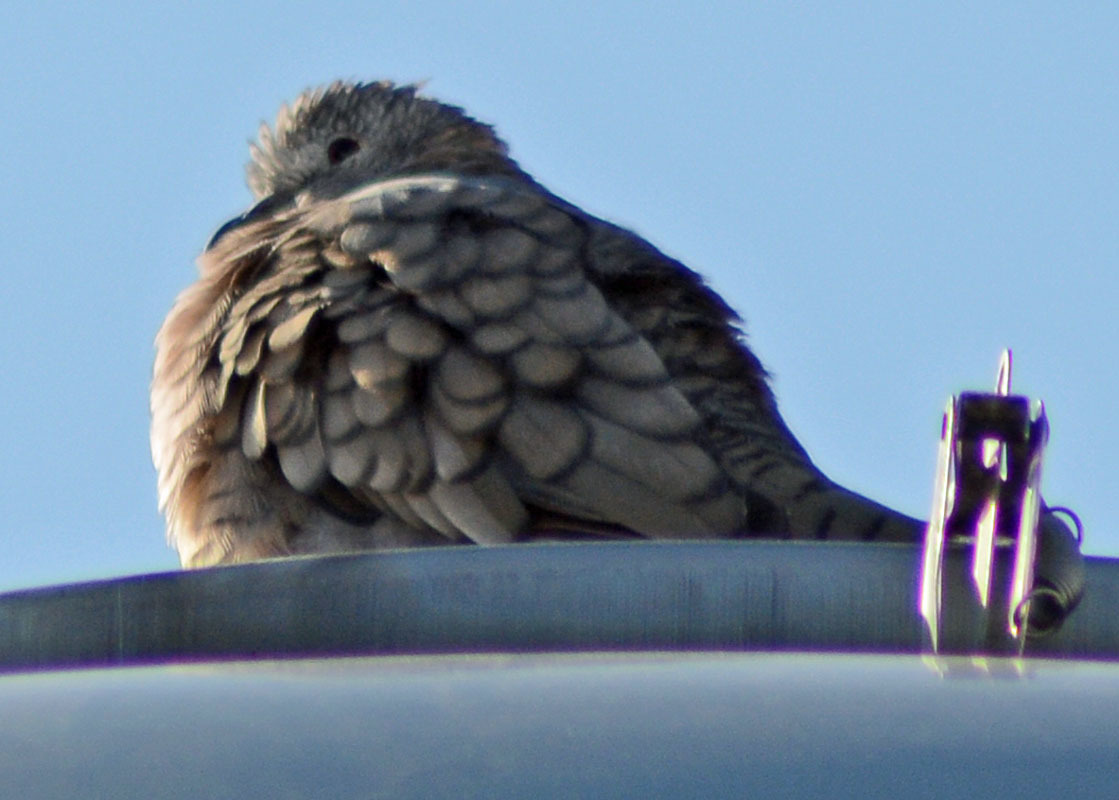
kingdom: Animalia
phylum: Chordata
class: Aves
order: Columbiformes
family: Columbidae
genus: Columbina
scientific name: Columbina inca
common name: Inca dove
